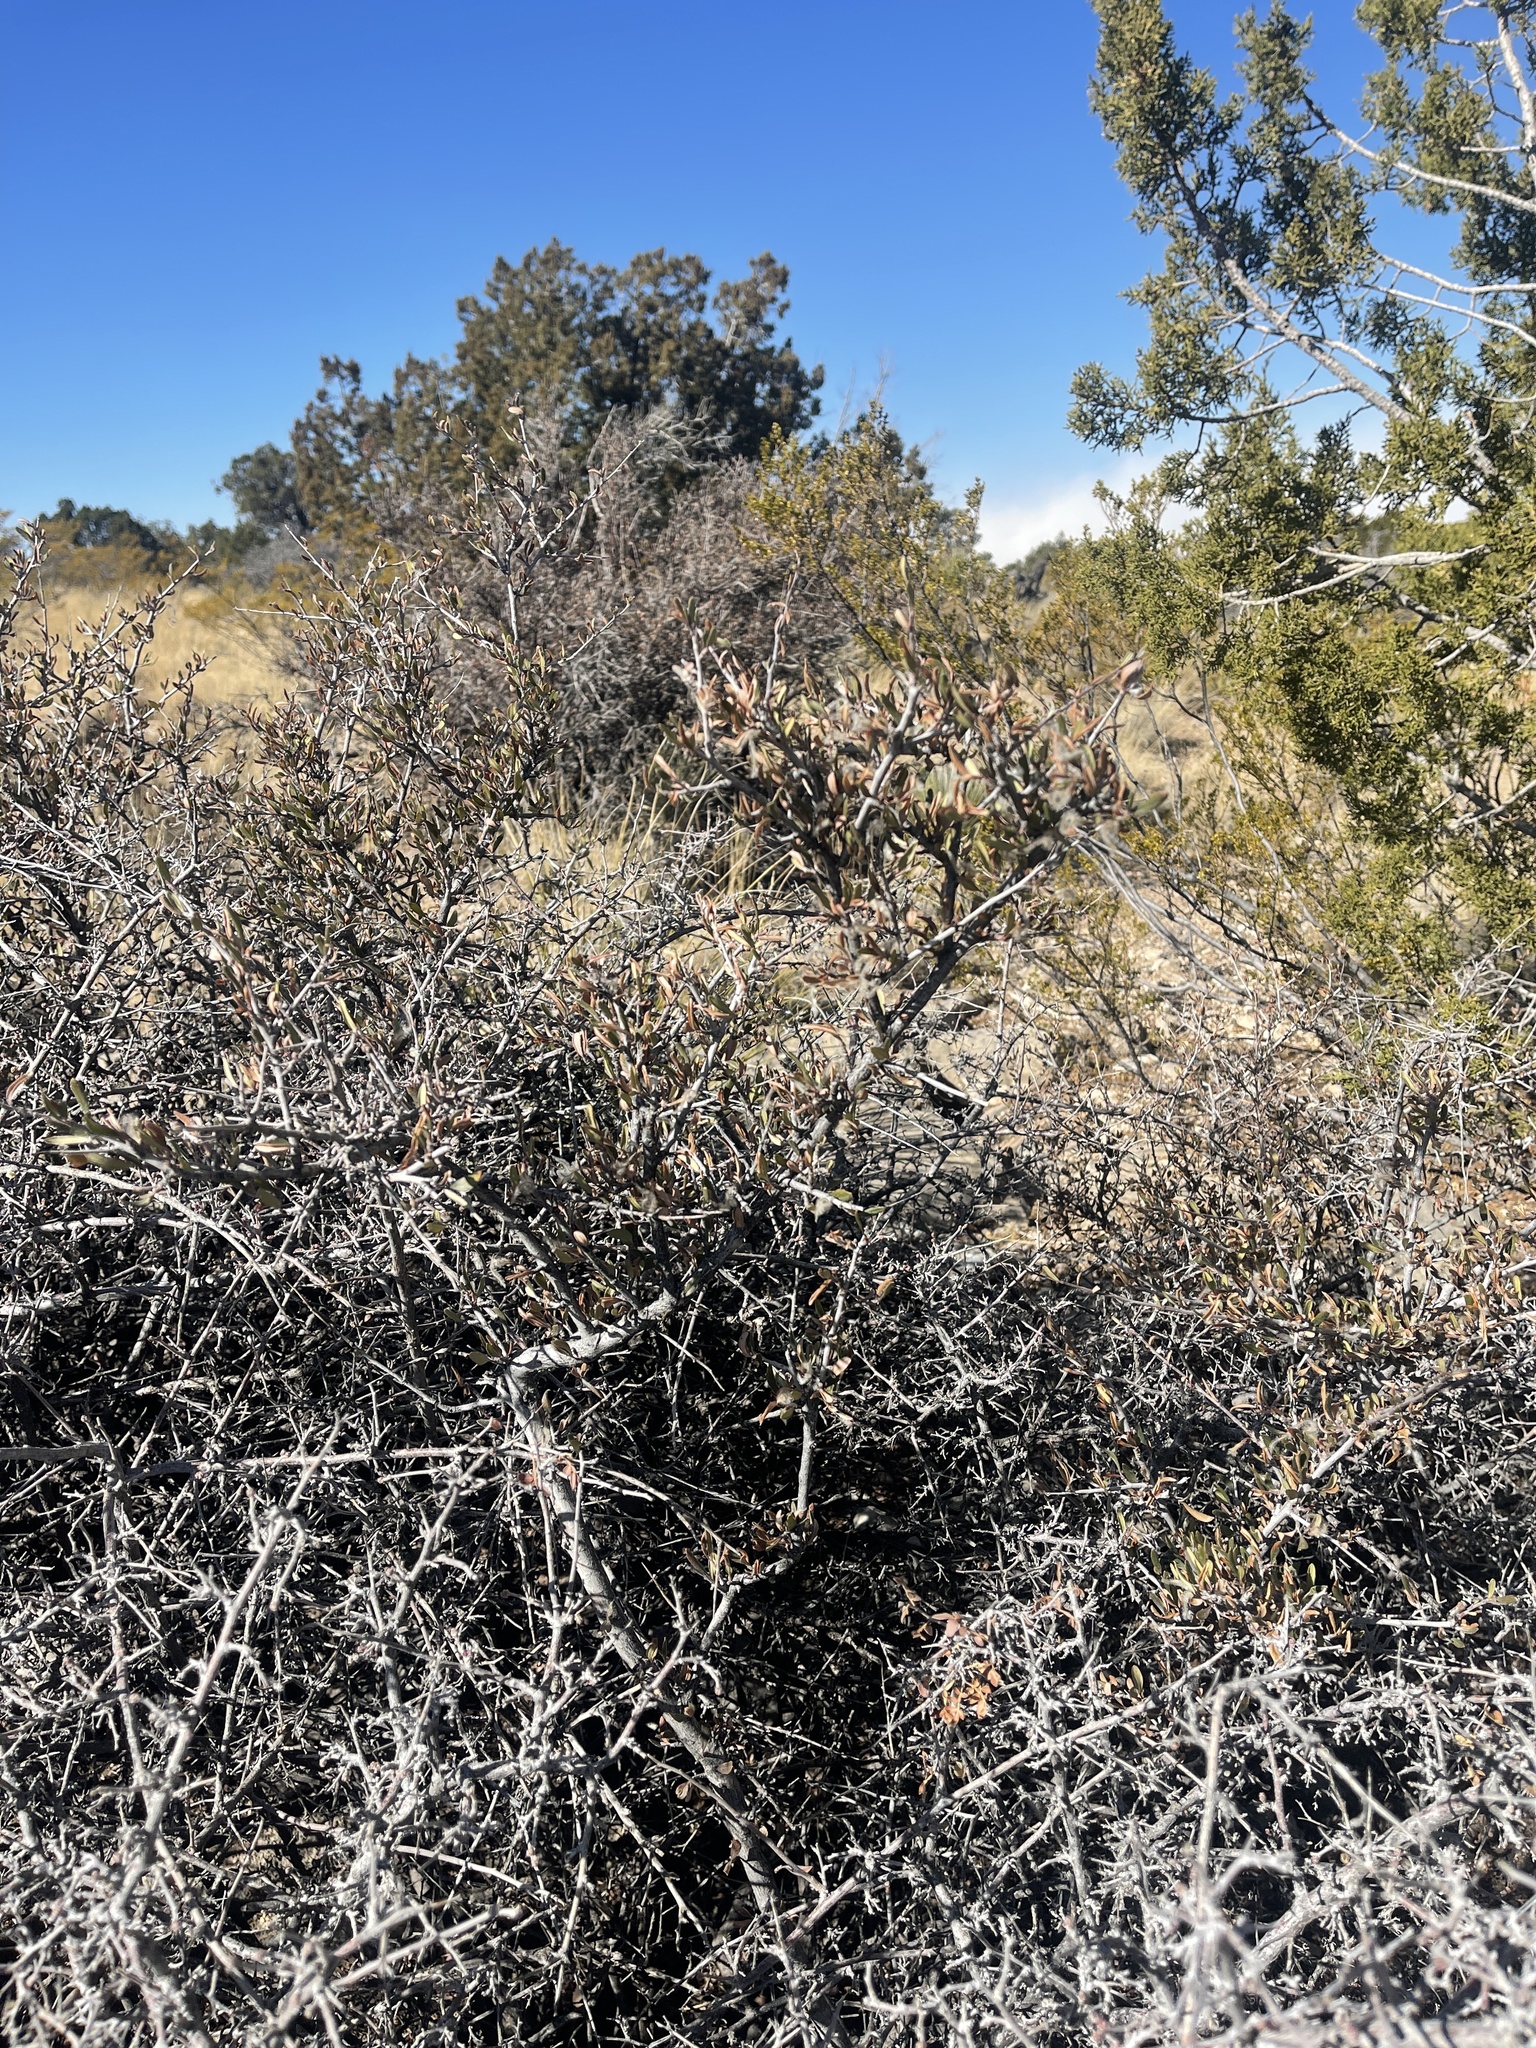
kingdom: Plantae
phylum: Tracheophyta
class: Magnoliopsida
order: Rosales
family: Rosaceae
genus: Cercocarpus
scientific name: Cercocarpus breviflorus
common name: Wright's mountain-mahogany
